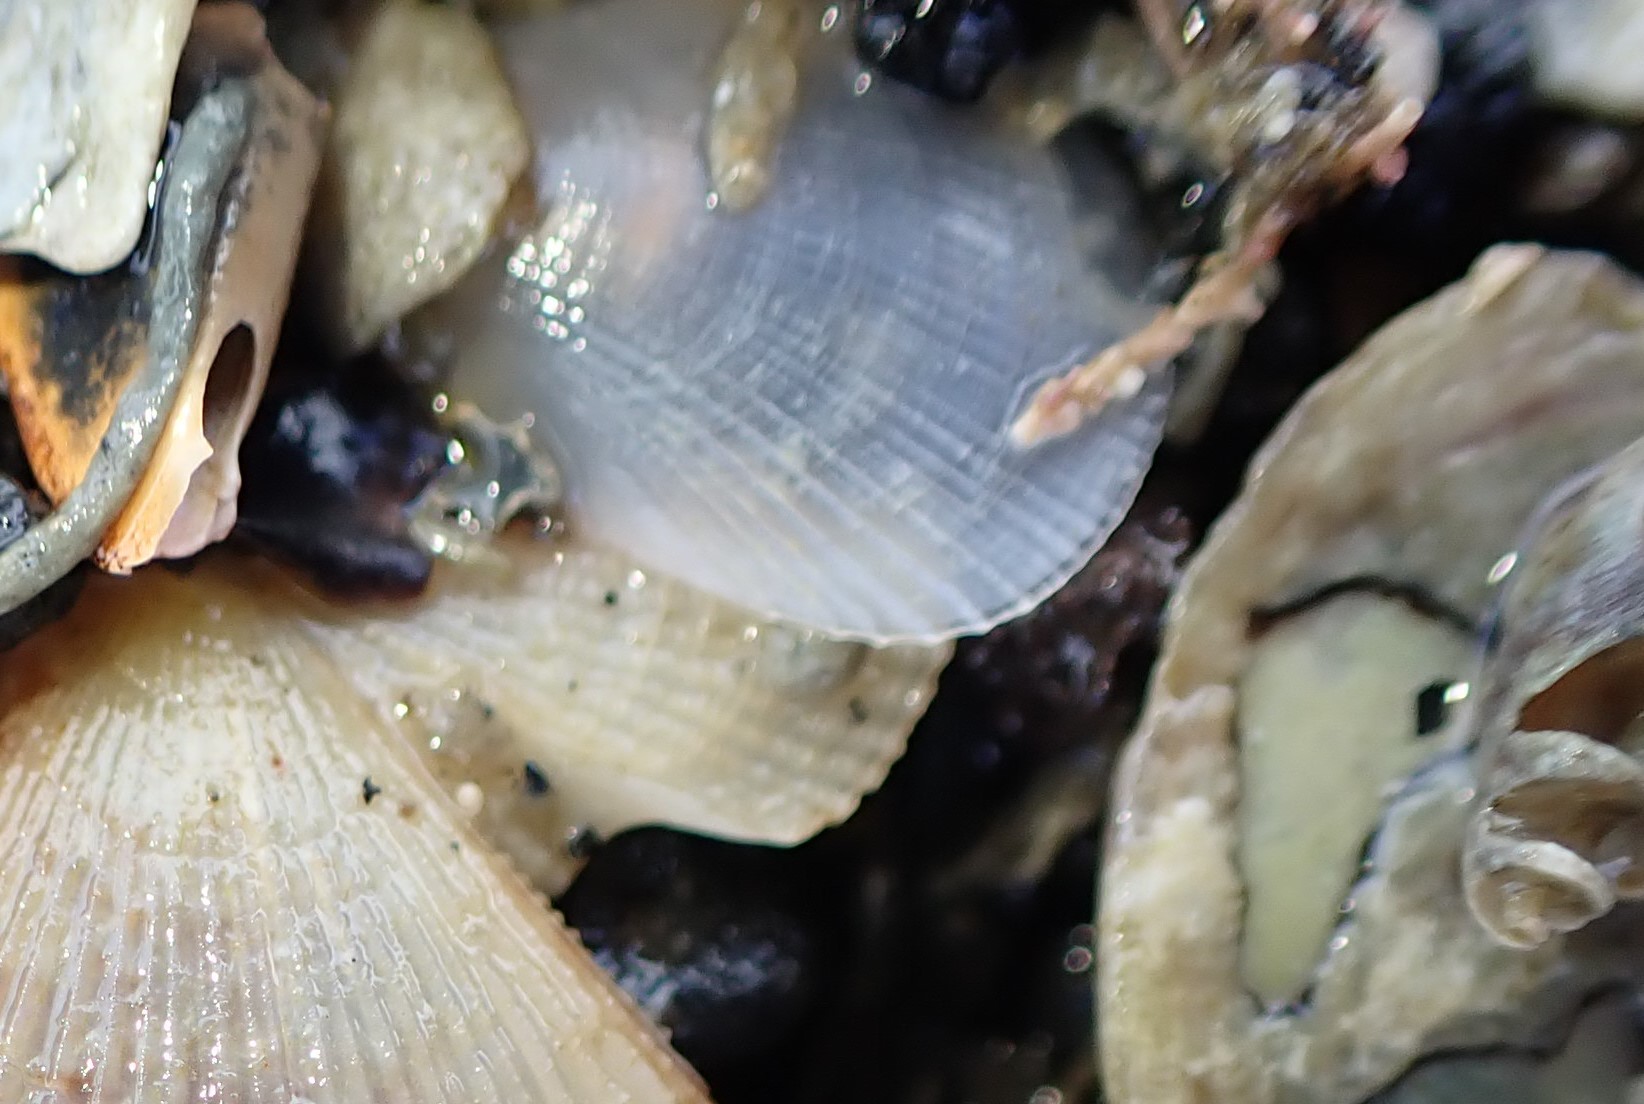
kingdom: Animalia
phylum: Mollusca
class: Bivalvia
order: Limida
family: Limidae
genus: Limaria
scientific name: Limaria orientalis
